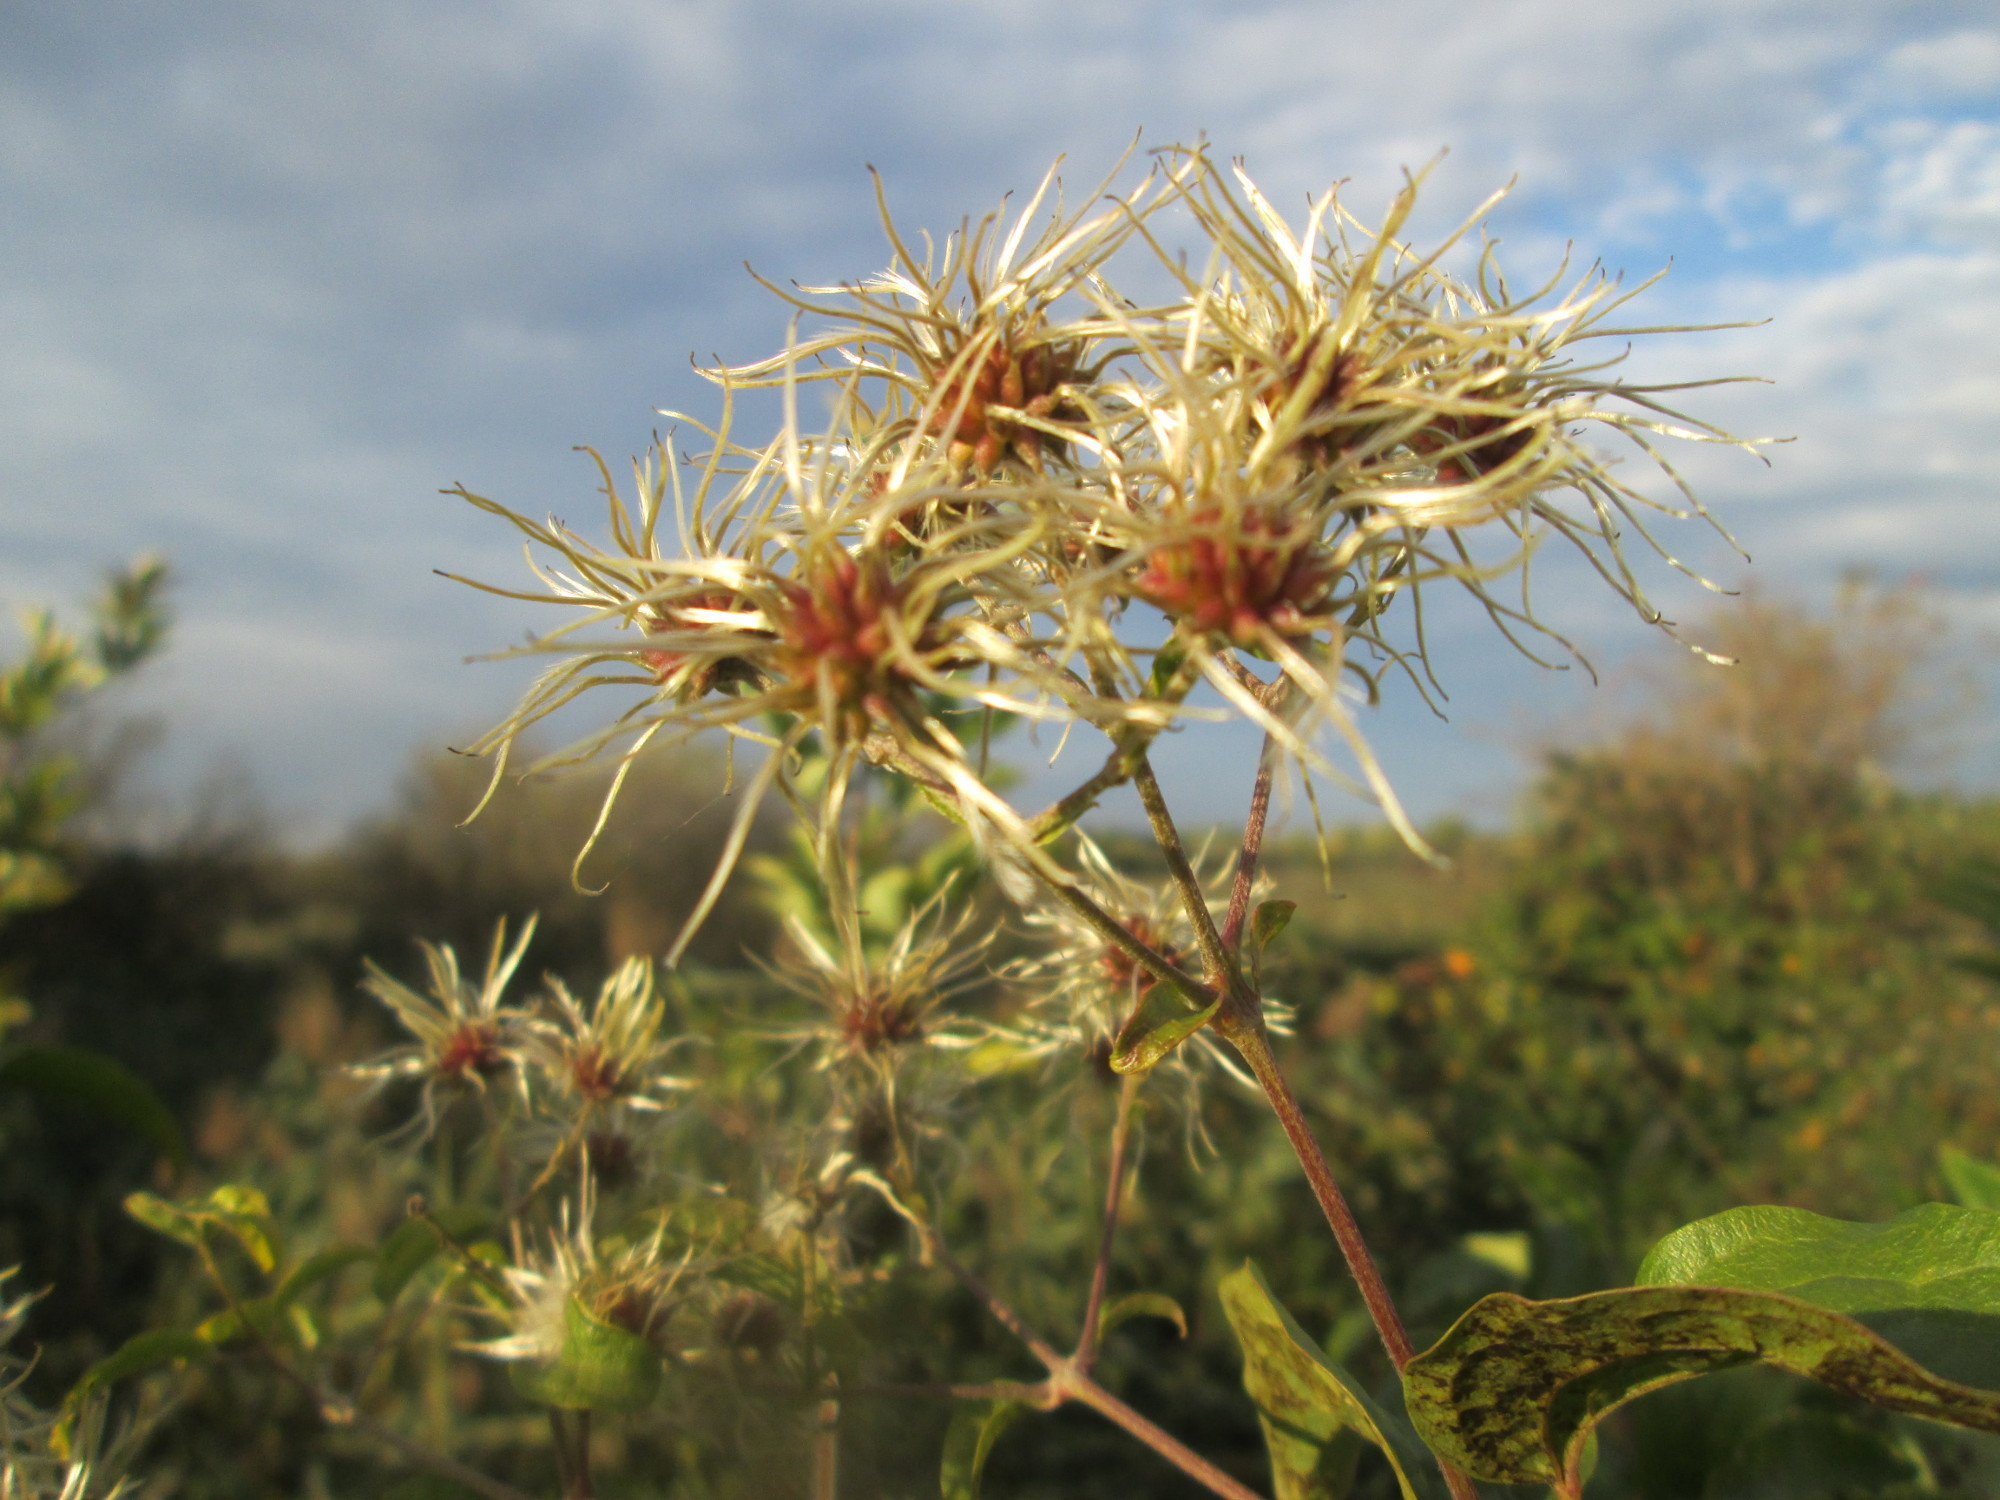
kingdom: Plantae
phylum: Tracheophyta
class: Magnoliopsida
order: Ranunculales
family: Ranunculaceae
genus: Clematis
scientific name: Clematis vitalba
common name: Evergreen clematis
